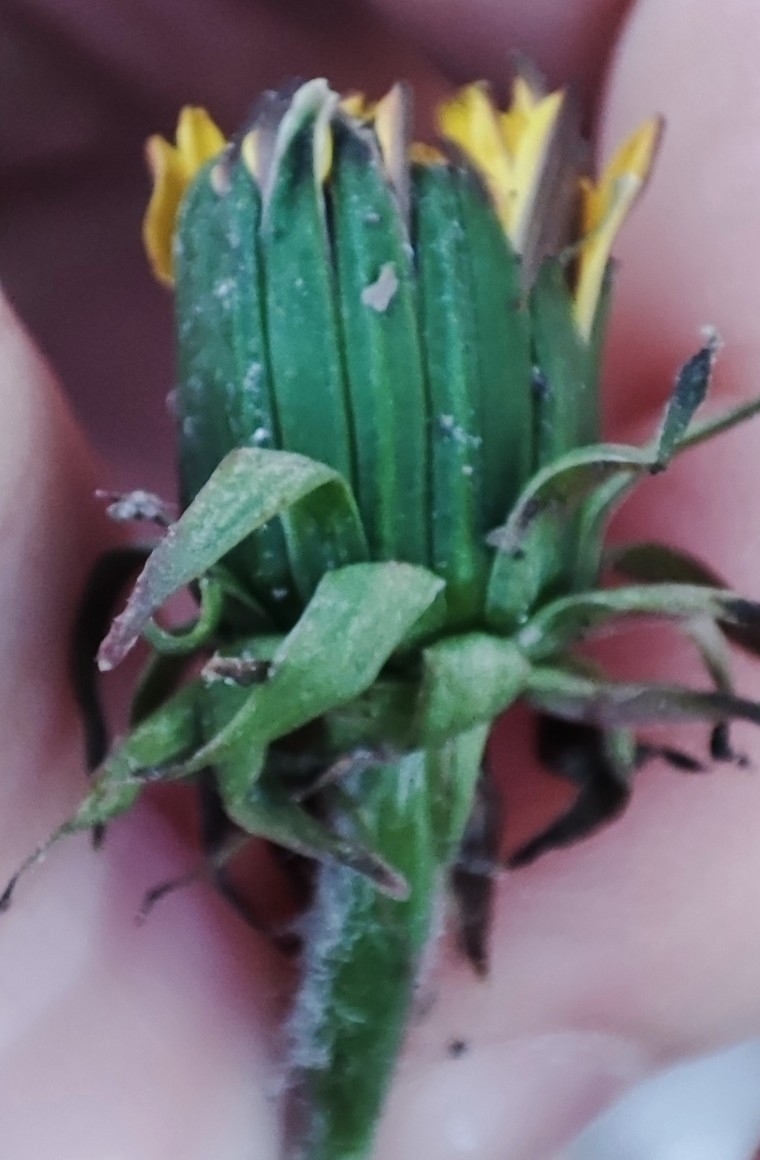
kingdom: Plantae
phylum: Tracheophyta
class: Magnoliopsida
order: Asterales
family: Asteraceae
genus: Taraxacum
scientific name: Taraxacum officinale
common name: Common dandelion
